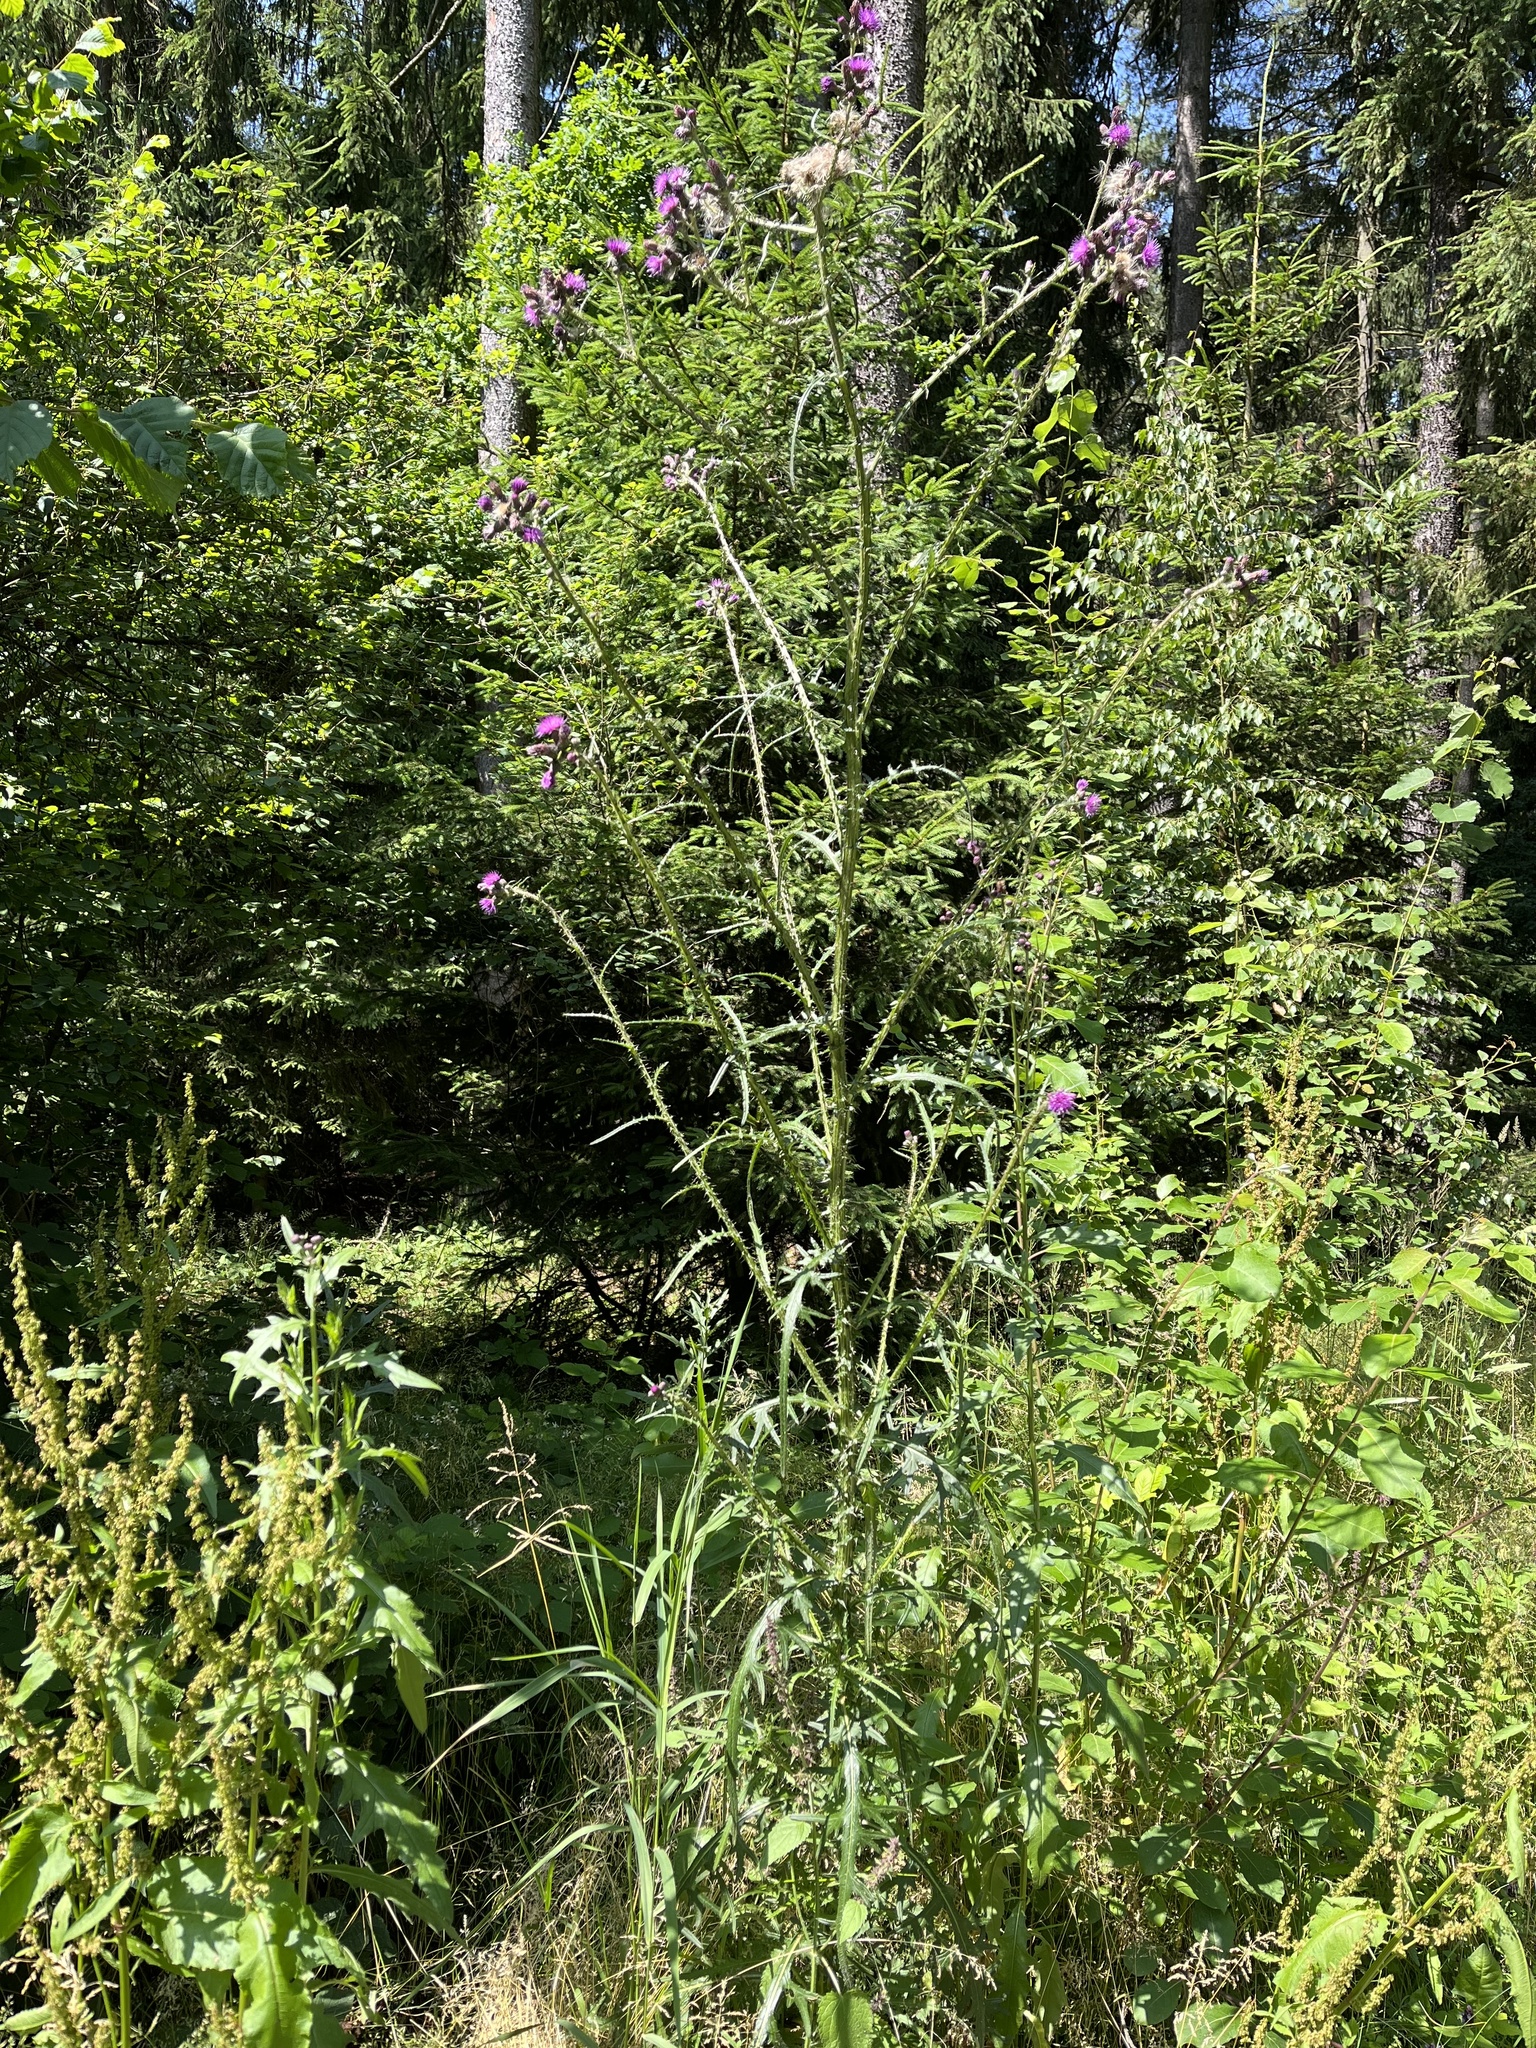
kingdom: Plantae
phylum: Tracheophyta
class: Magnoliopsida
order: Asterales
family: Asteraceae
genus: Cirsium
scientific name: Cirsium palustre
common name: Marsh thistle
